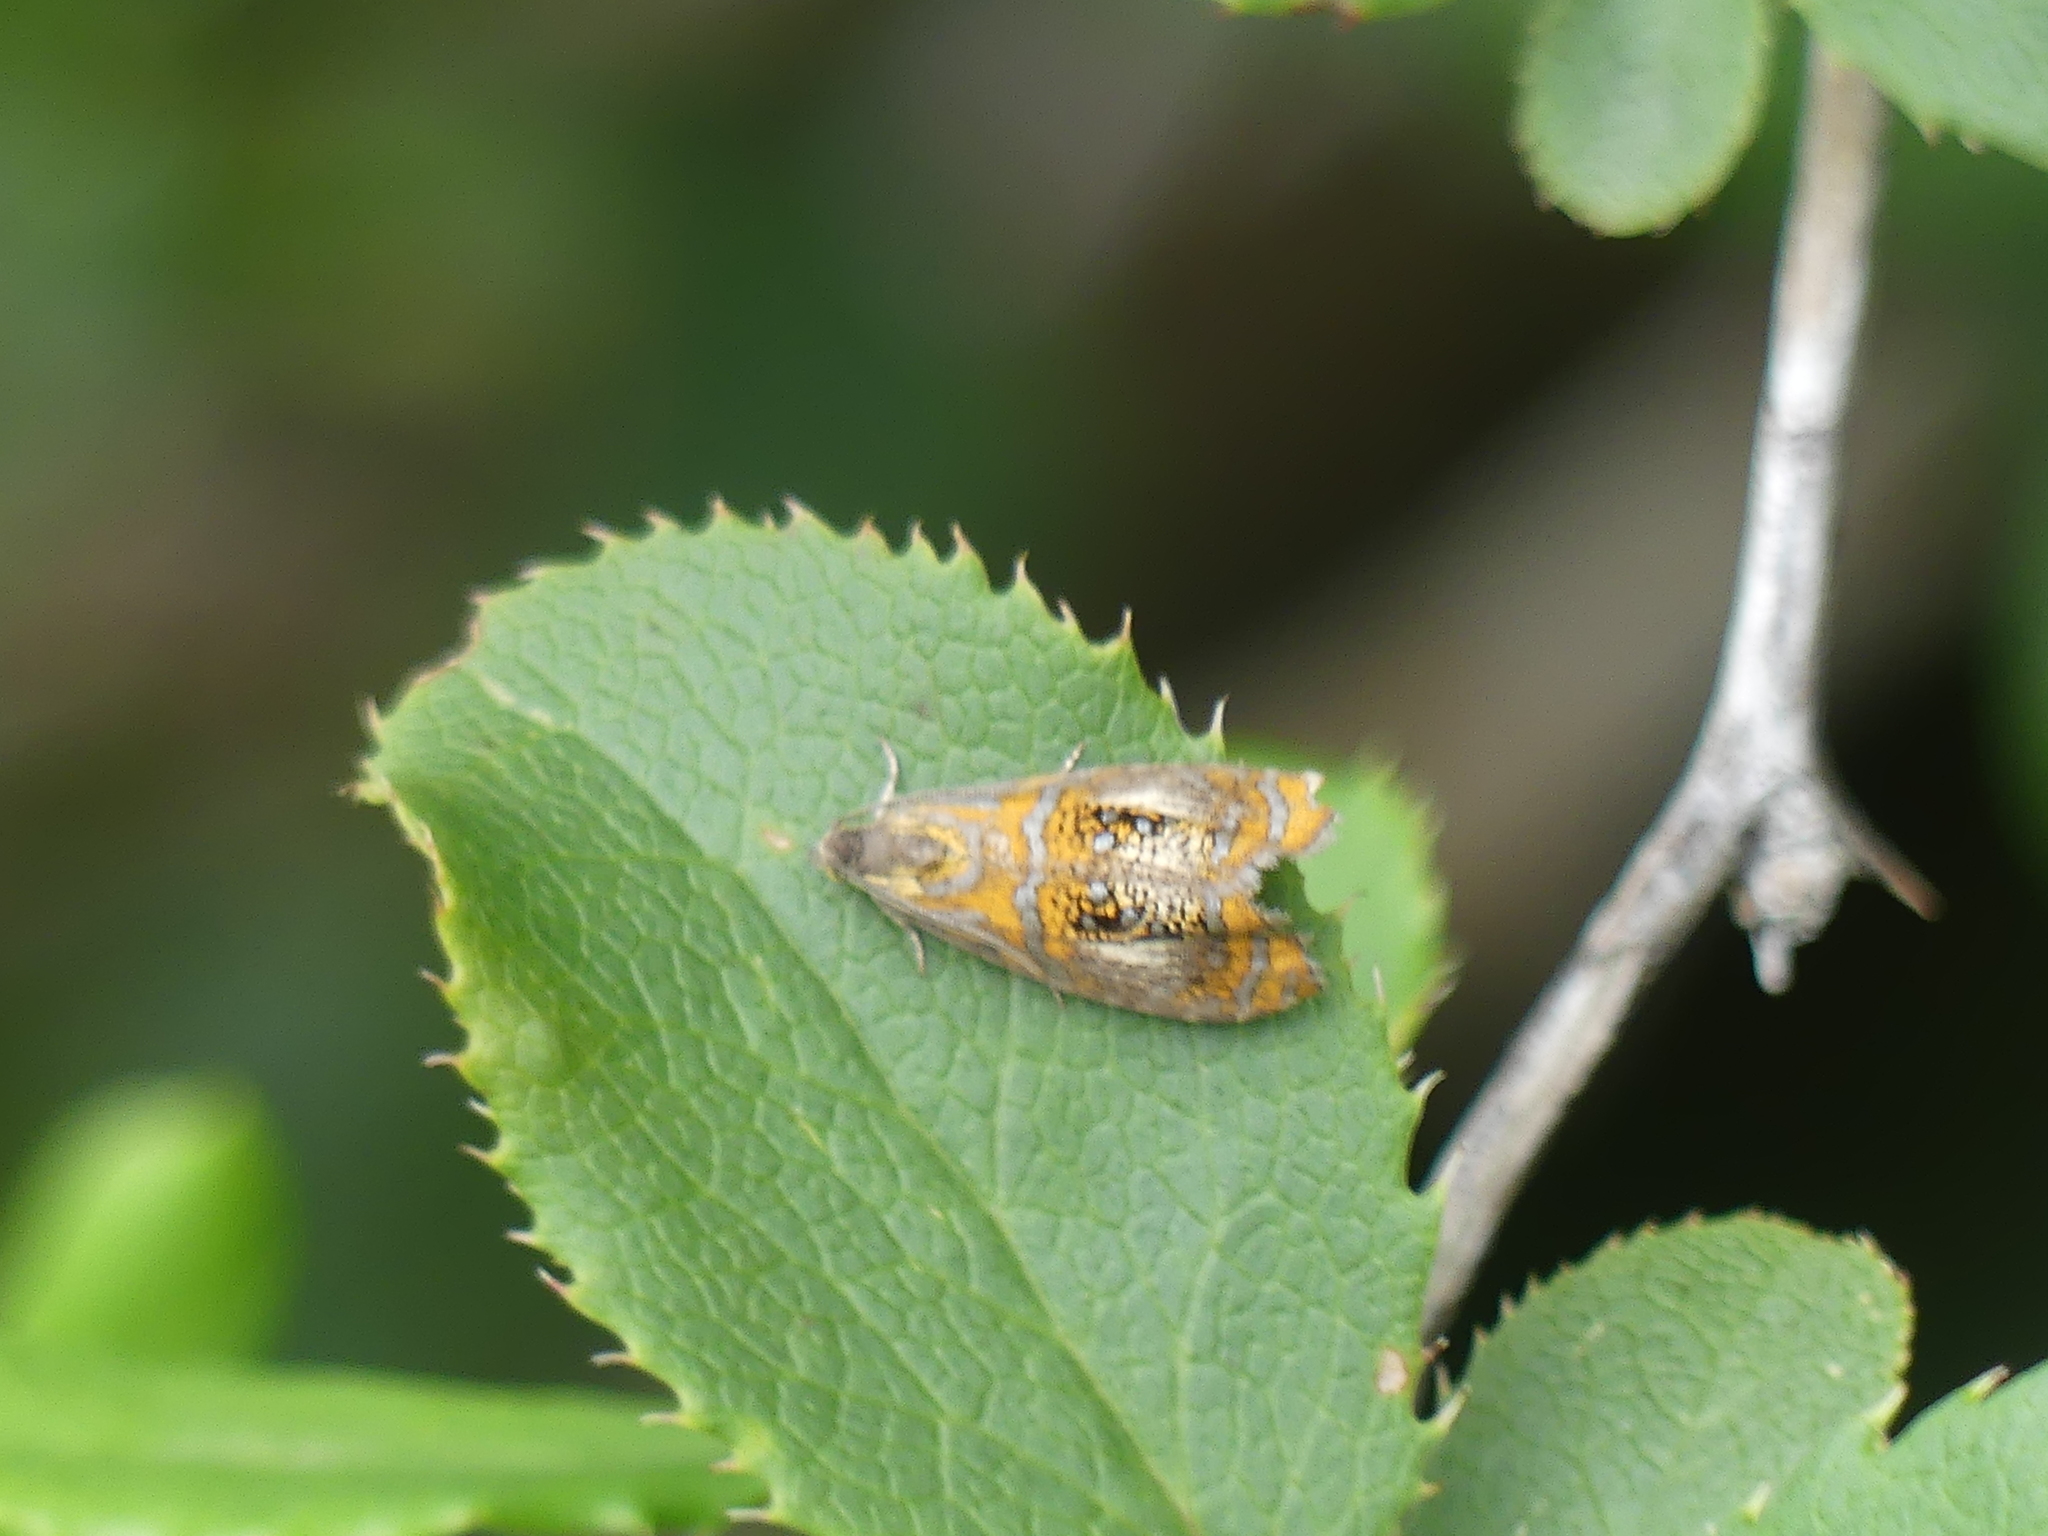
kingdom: Animalia
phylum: Arthropoda
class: Insecta
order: Lepidoptera
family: Tortricidae
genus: Olethreutes
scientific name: Olethreutes arcuella
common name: Arched marble
